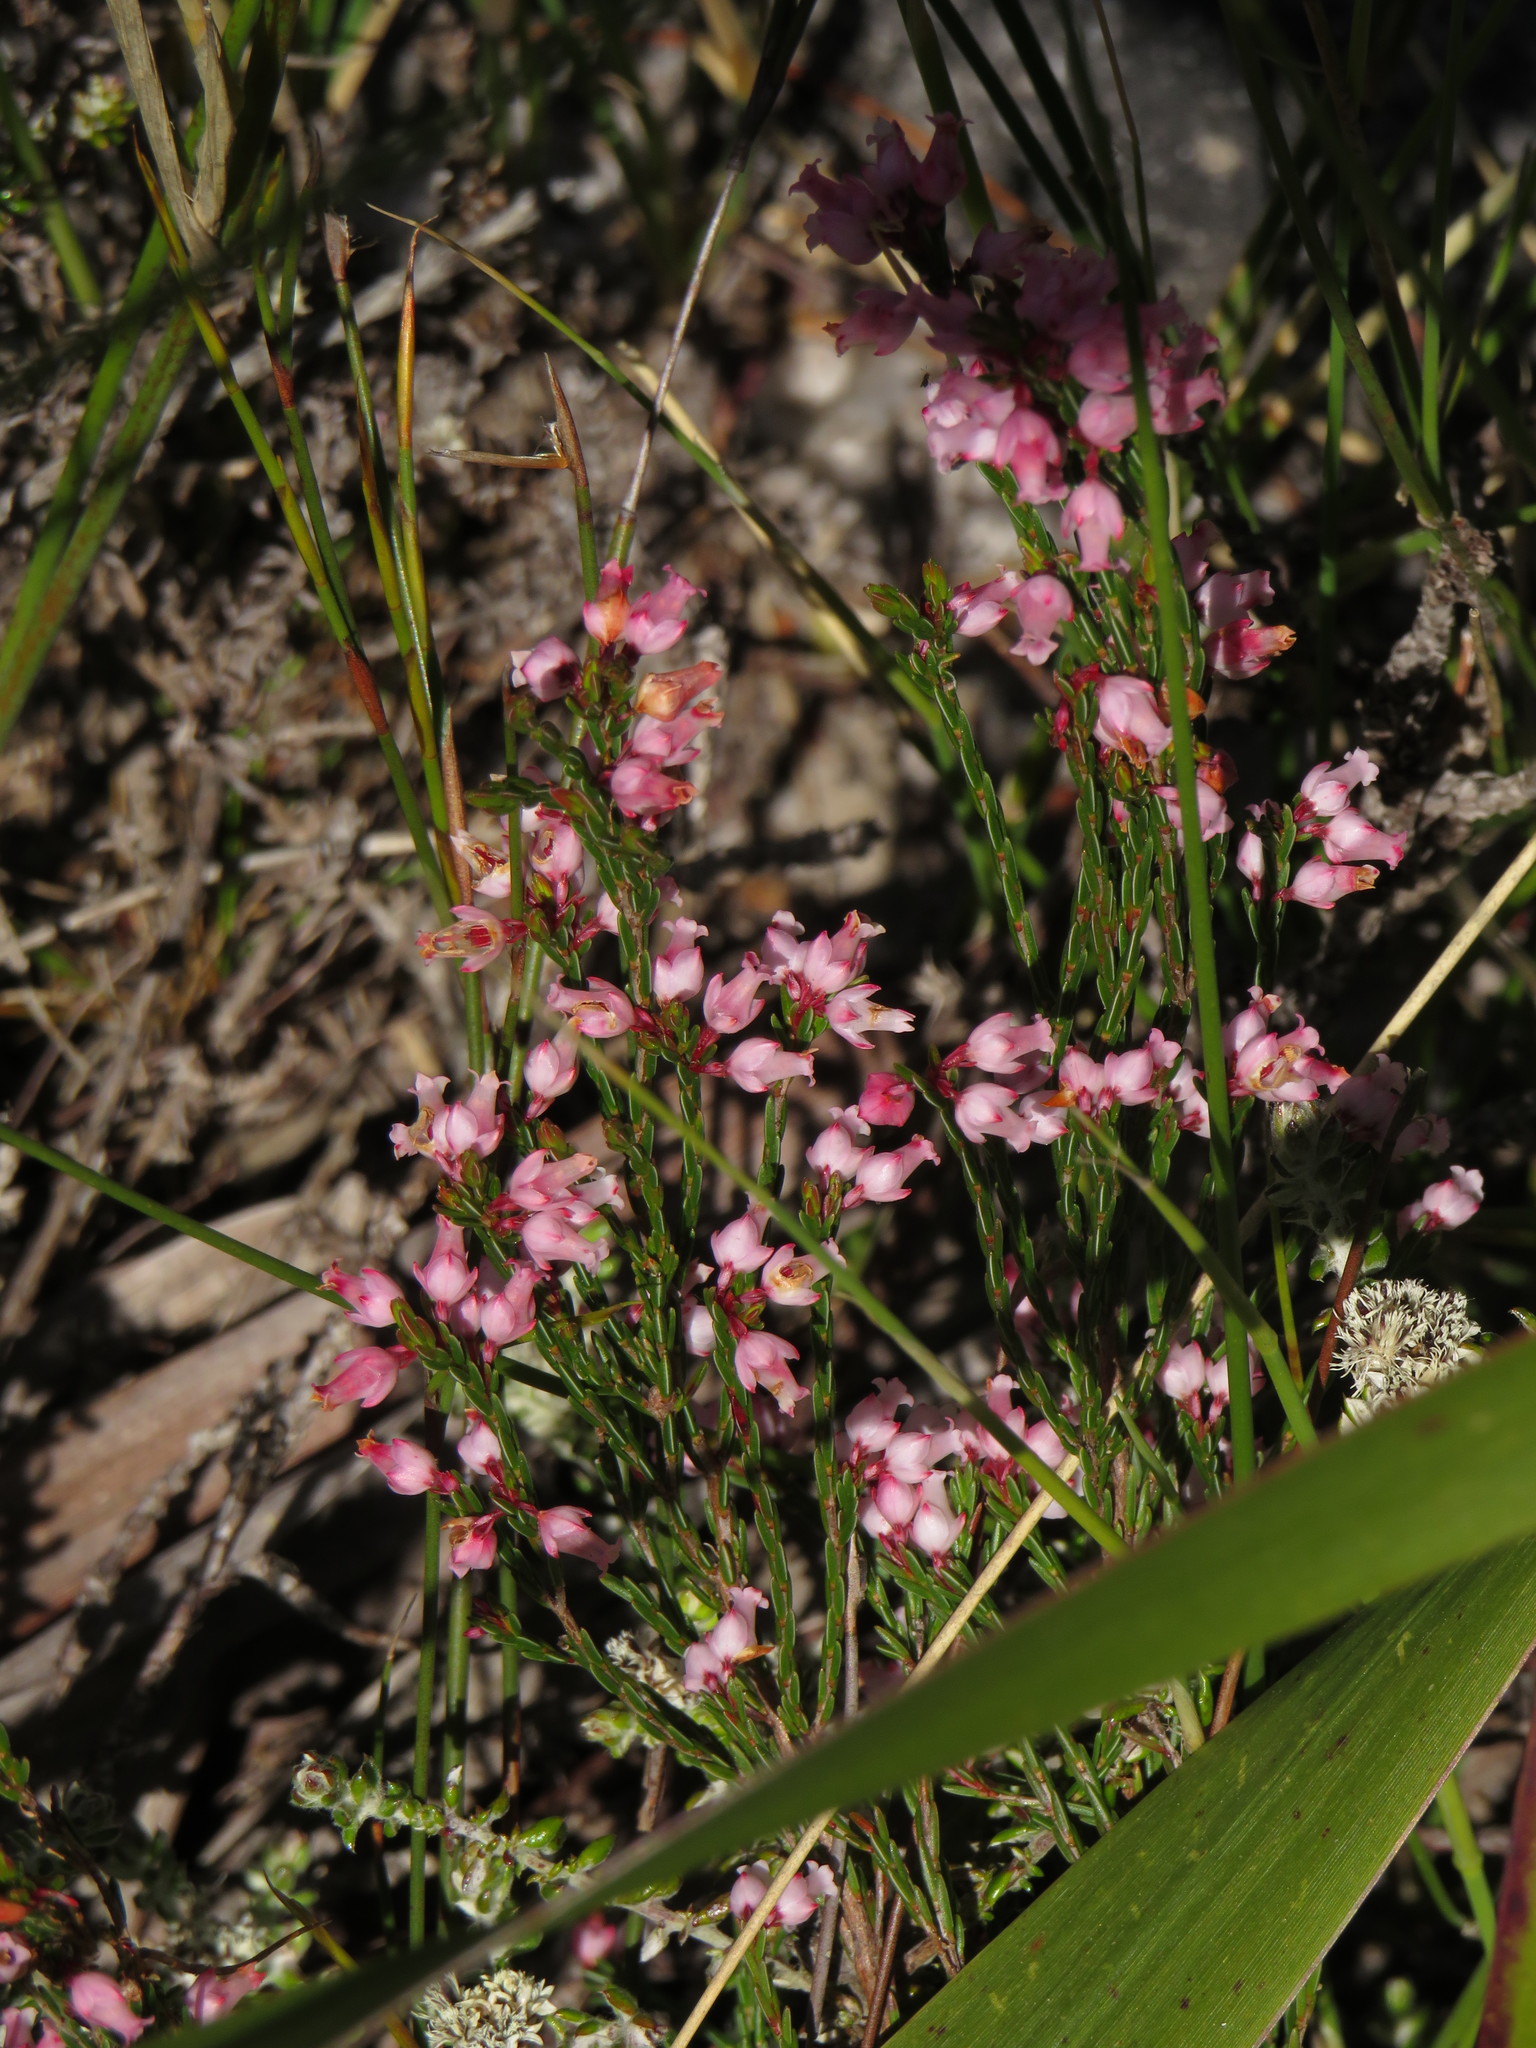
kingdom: Plantae
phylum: Tracheophyta
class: Magnoliopsida
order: Ericales
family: Ericaceae
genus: Erica
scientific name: Erica tenuifolia
